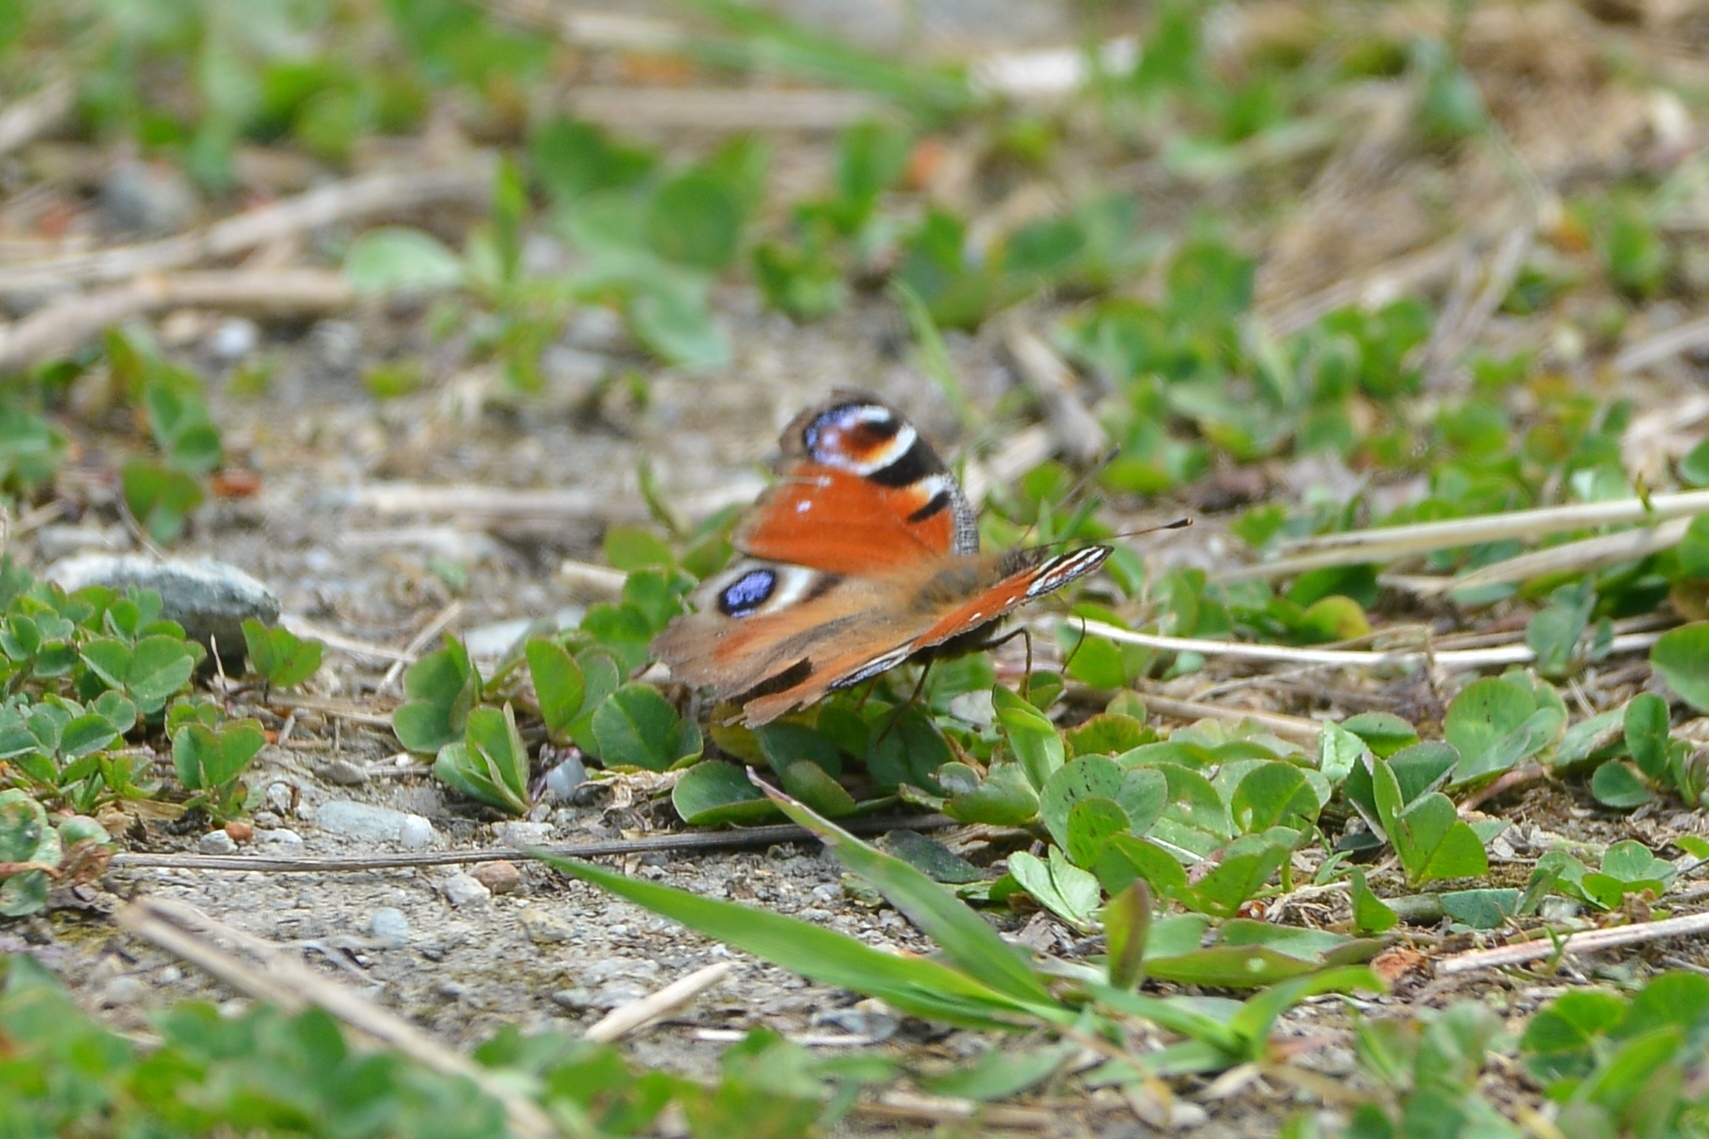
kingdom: Animalia
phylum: Arthropoda
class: Insecta
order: Lepidoptera
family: Nymphalidae
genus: Aglais
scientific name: Aglais io
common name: Peacock
